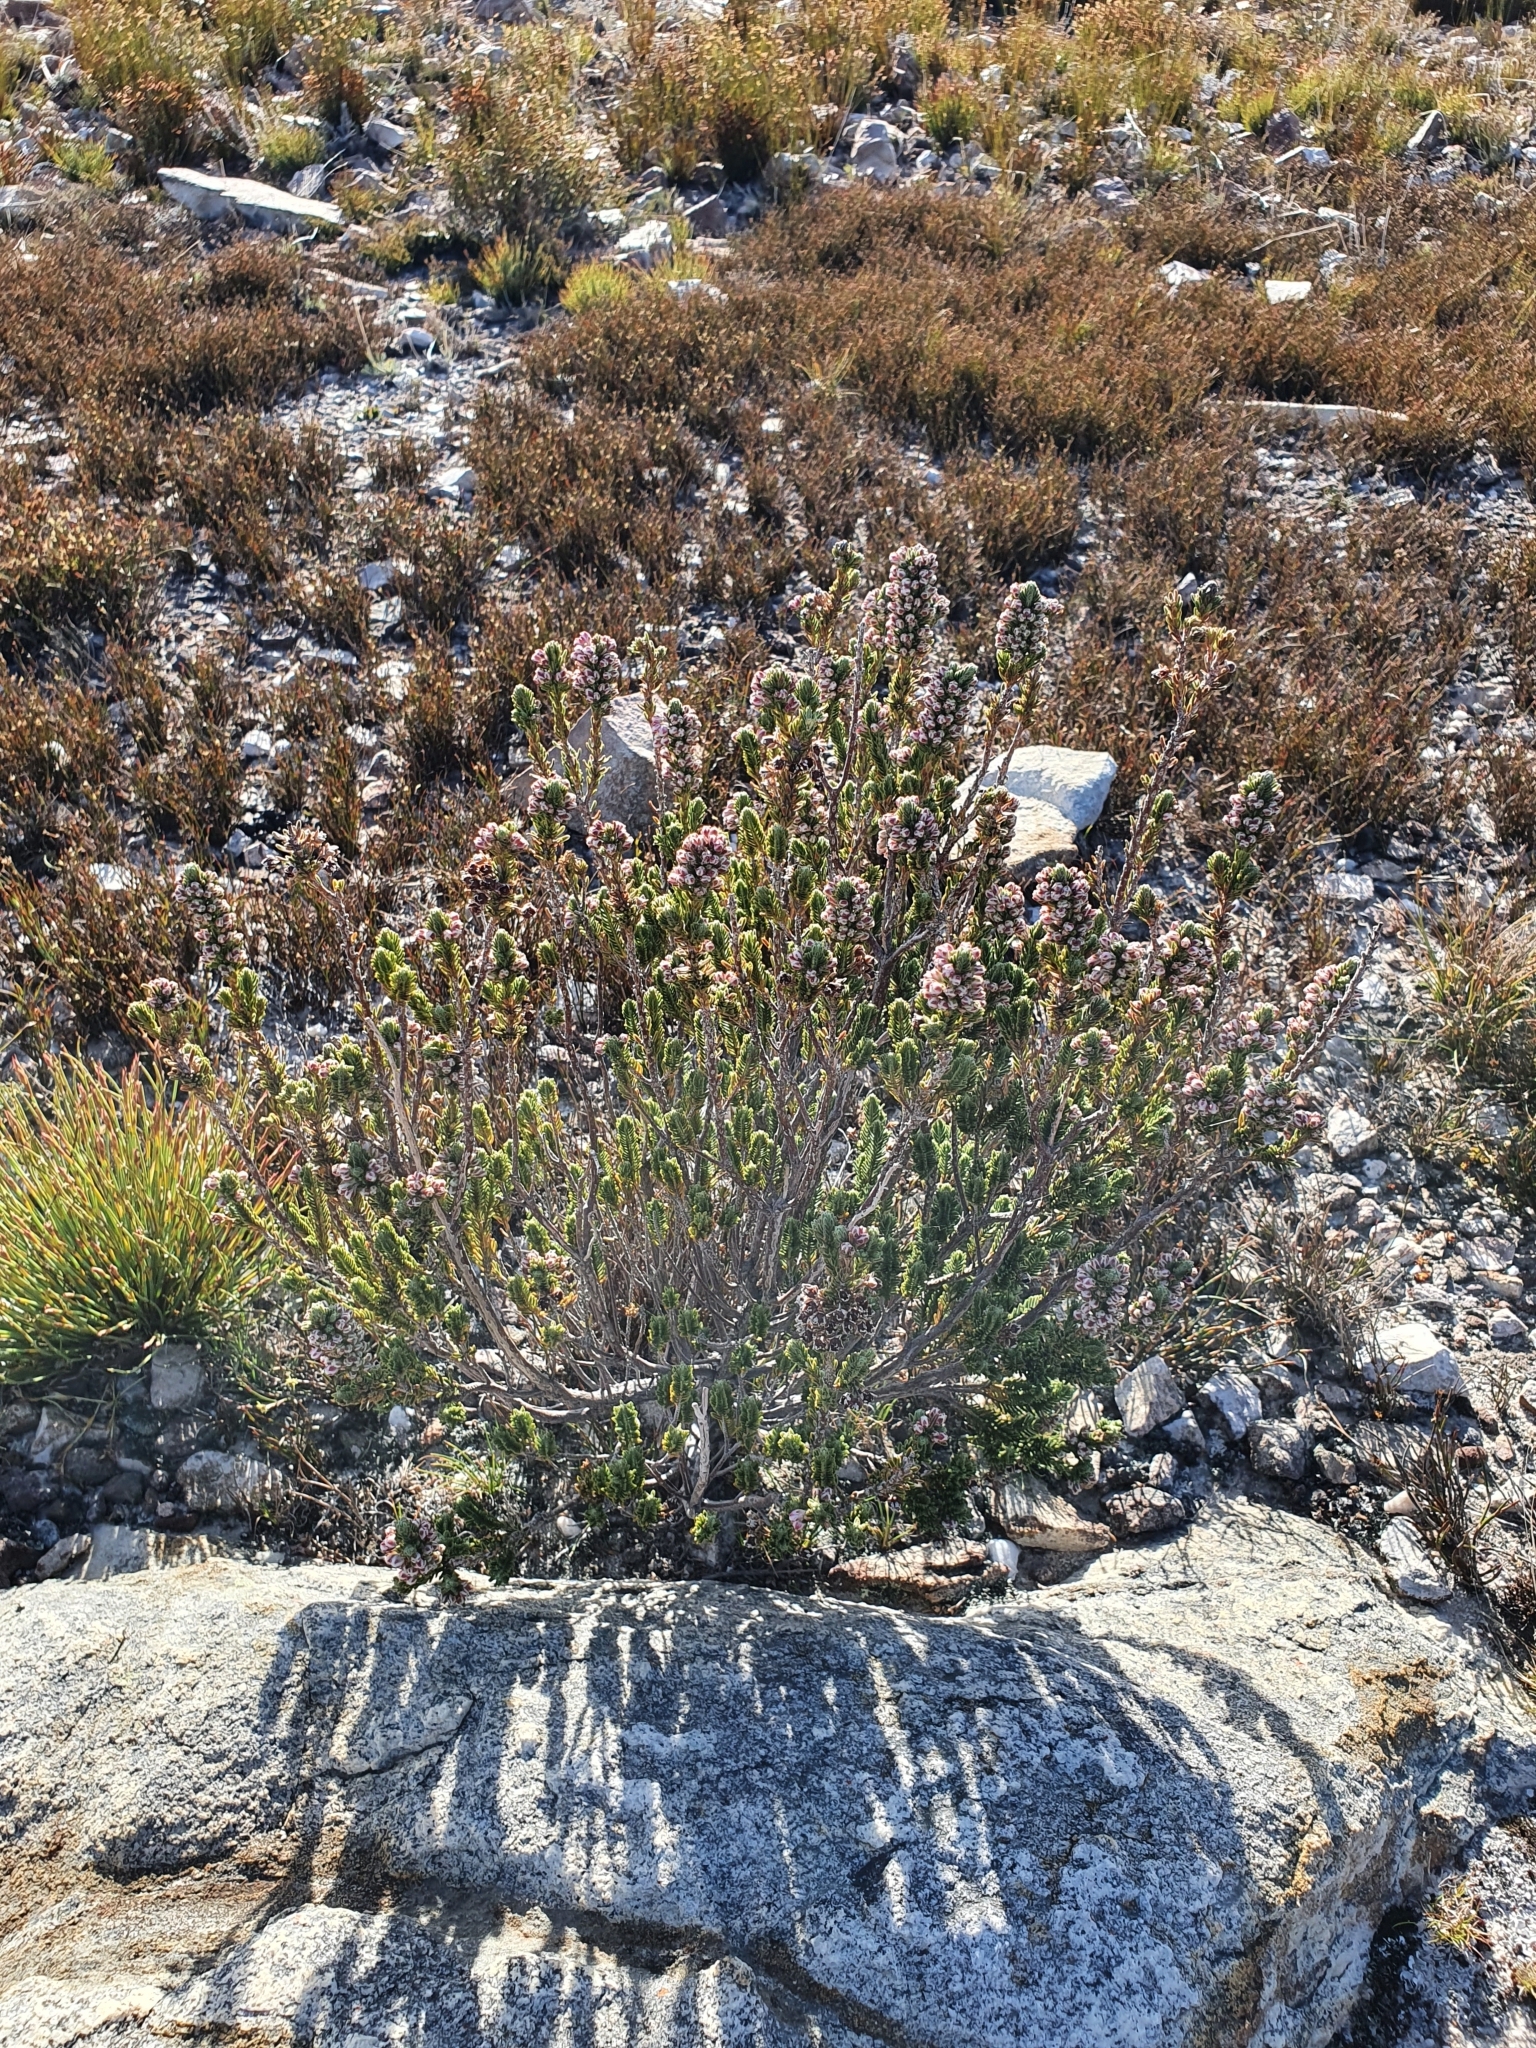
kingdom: Plantae
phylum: Tracheophyta
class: Magnoliopsida
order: Ericales
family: Ericaceae
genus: Erica
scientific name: Erica goatcheriana
